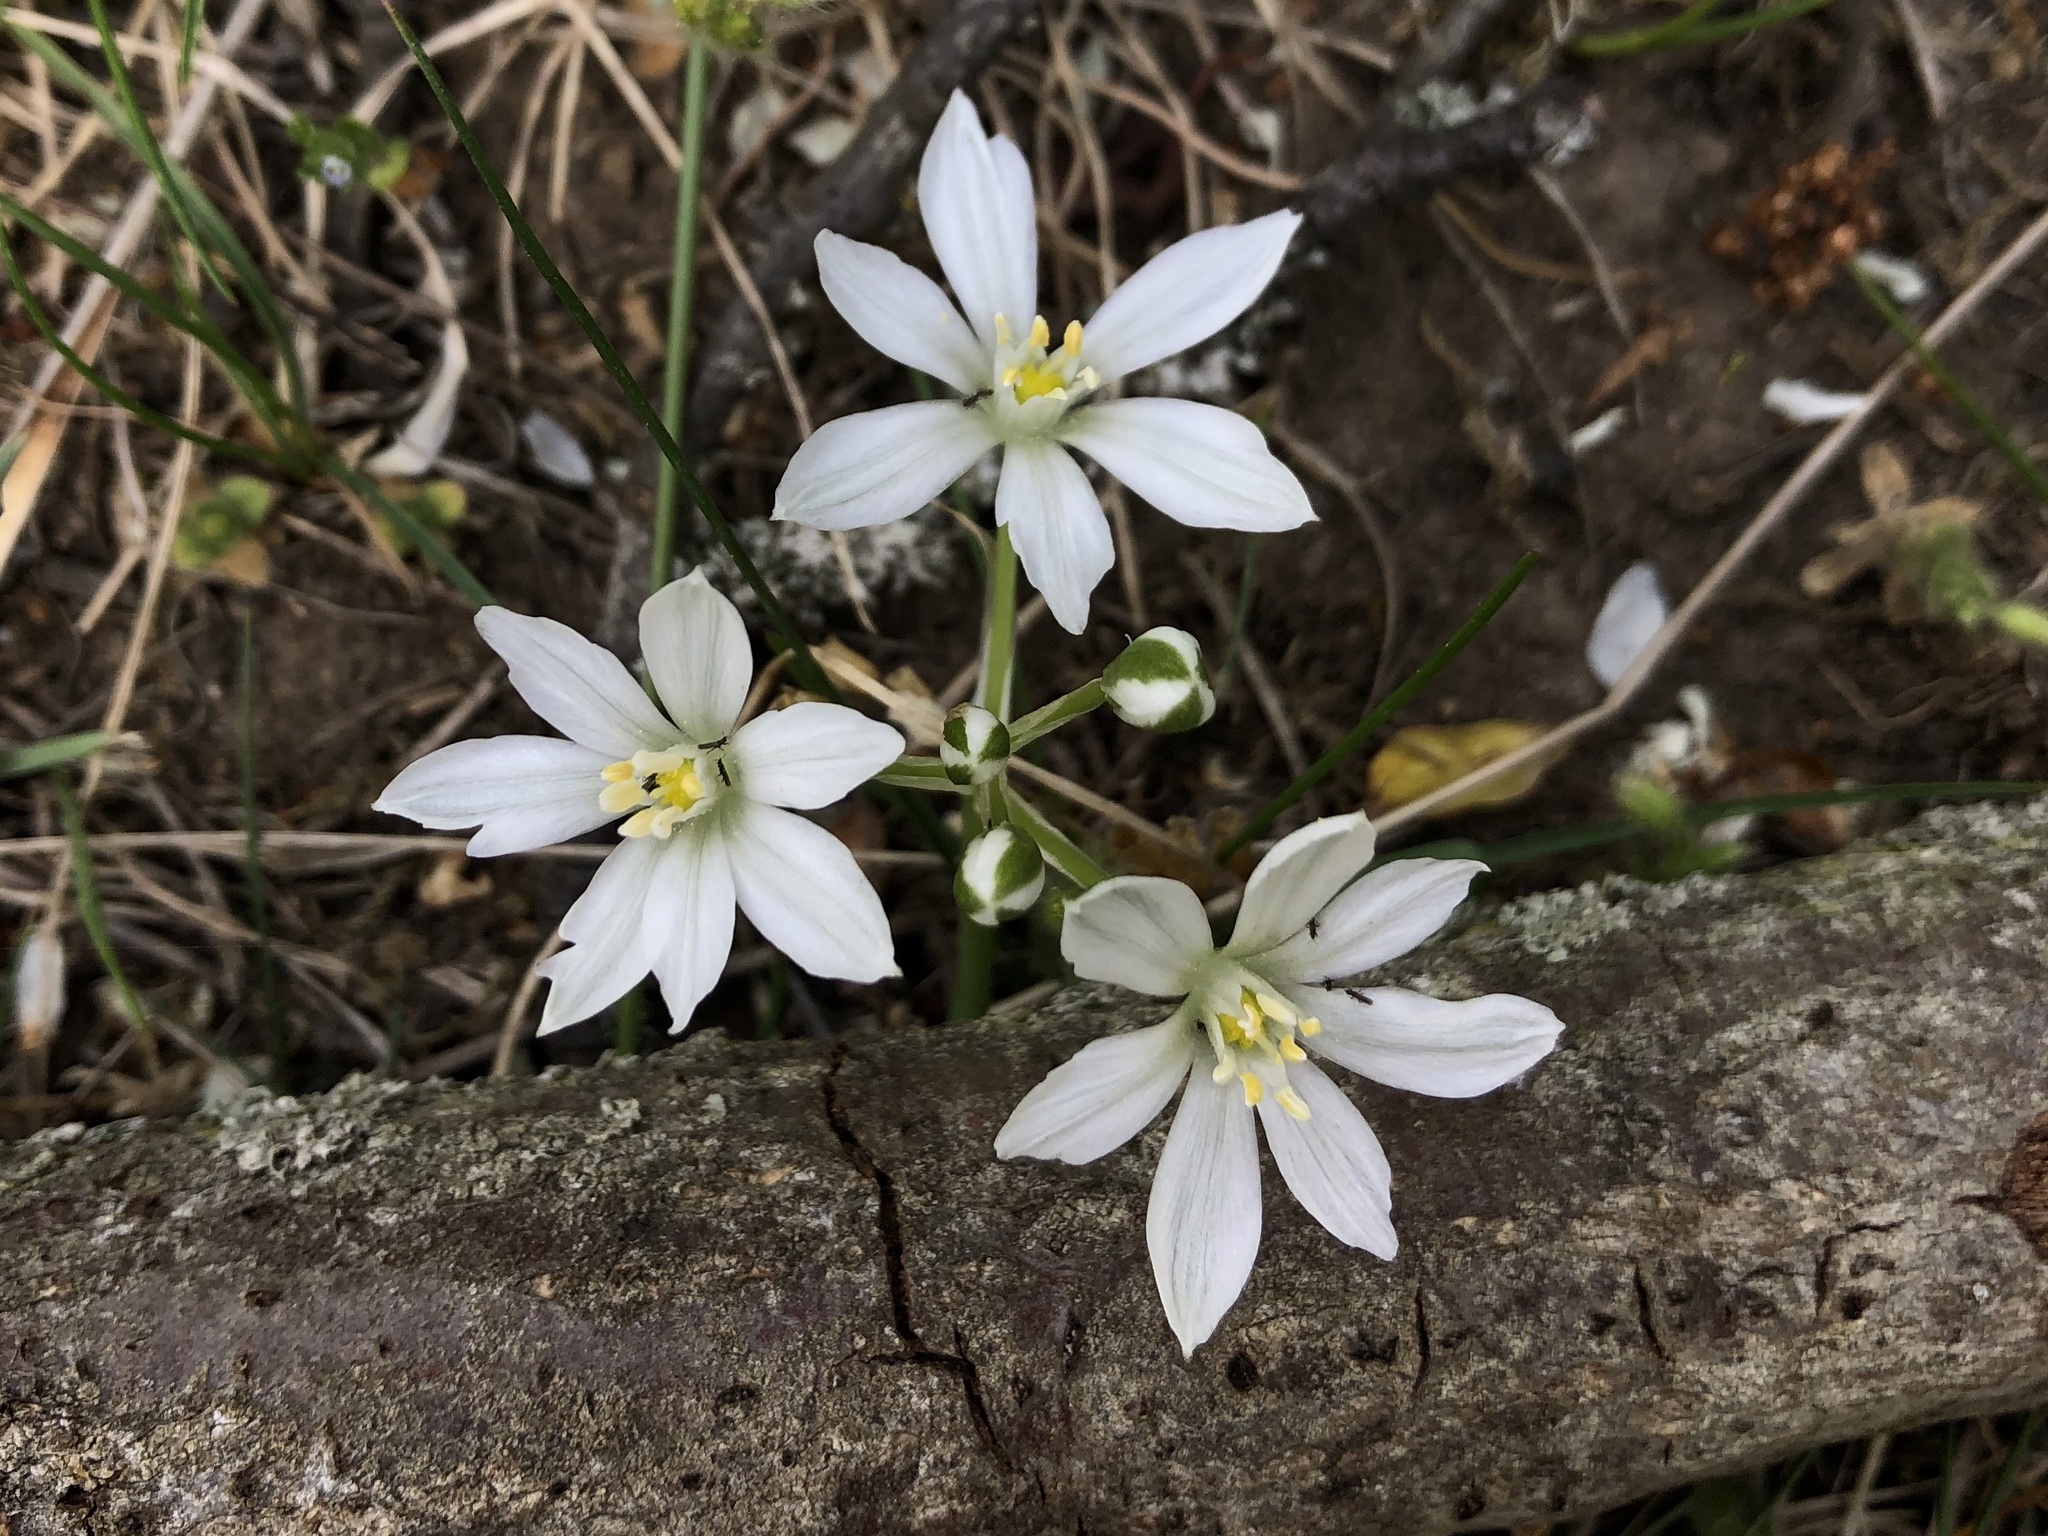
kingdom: Plantae
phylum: Tracheophyta
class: Liliopsida
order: Asparagales
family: Asparagaceae
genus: Ornithogalum
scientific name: Ornithogalum umbellatum
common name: Garden star-of-bethlehem
